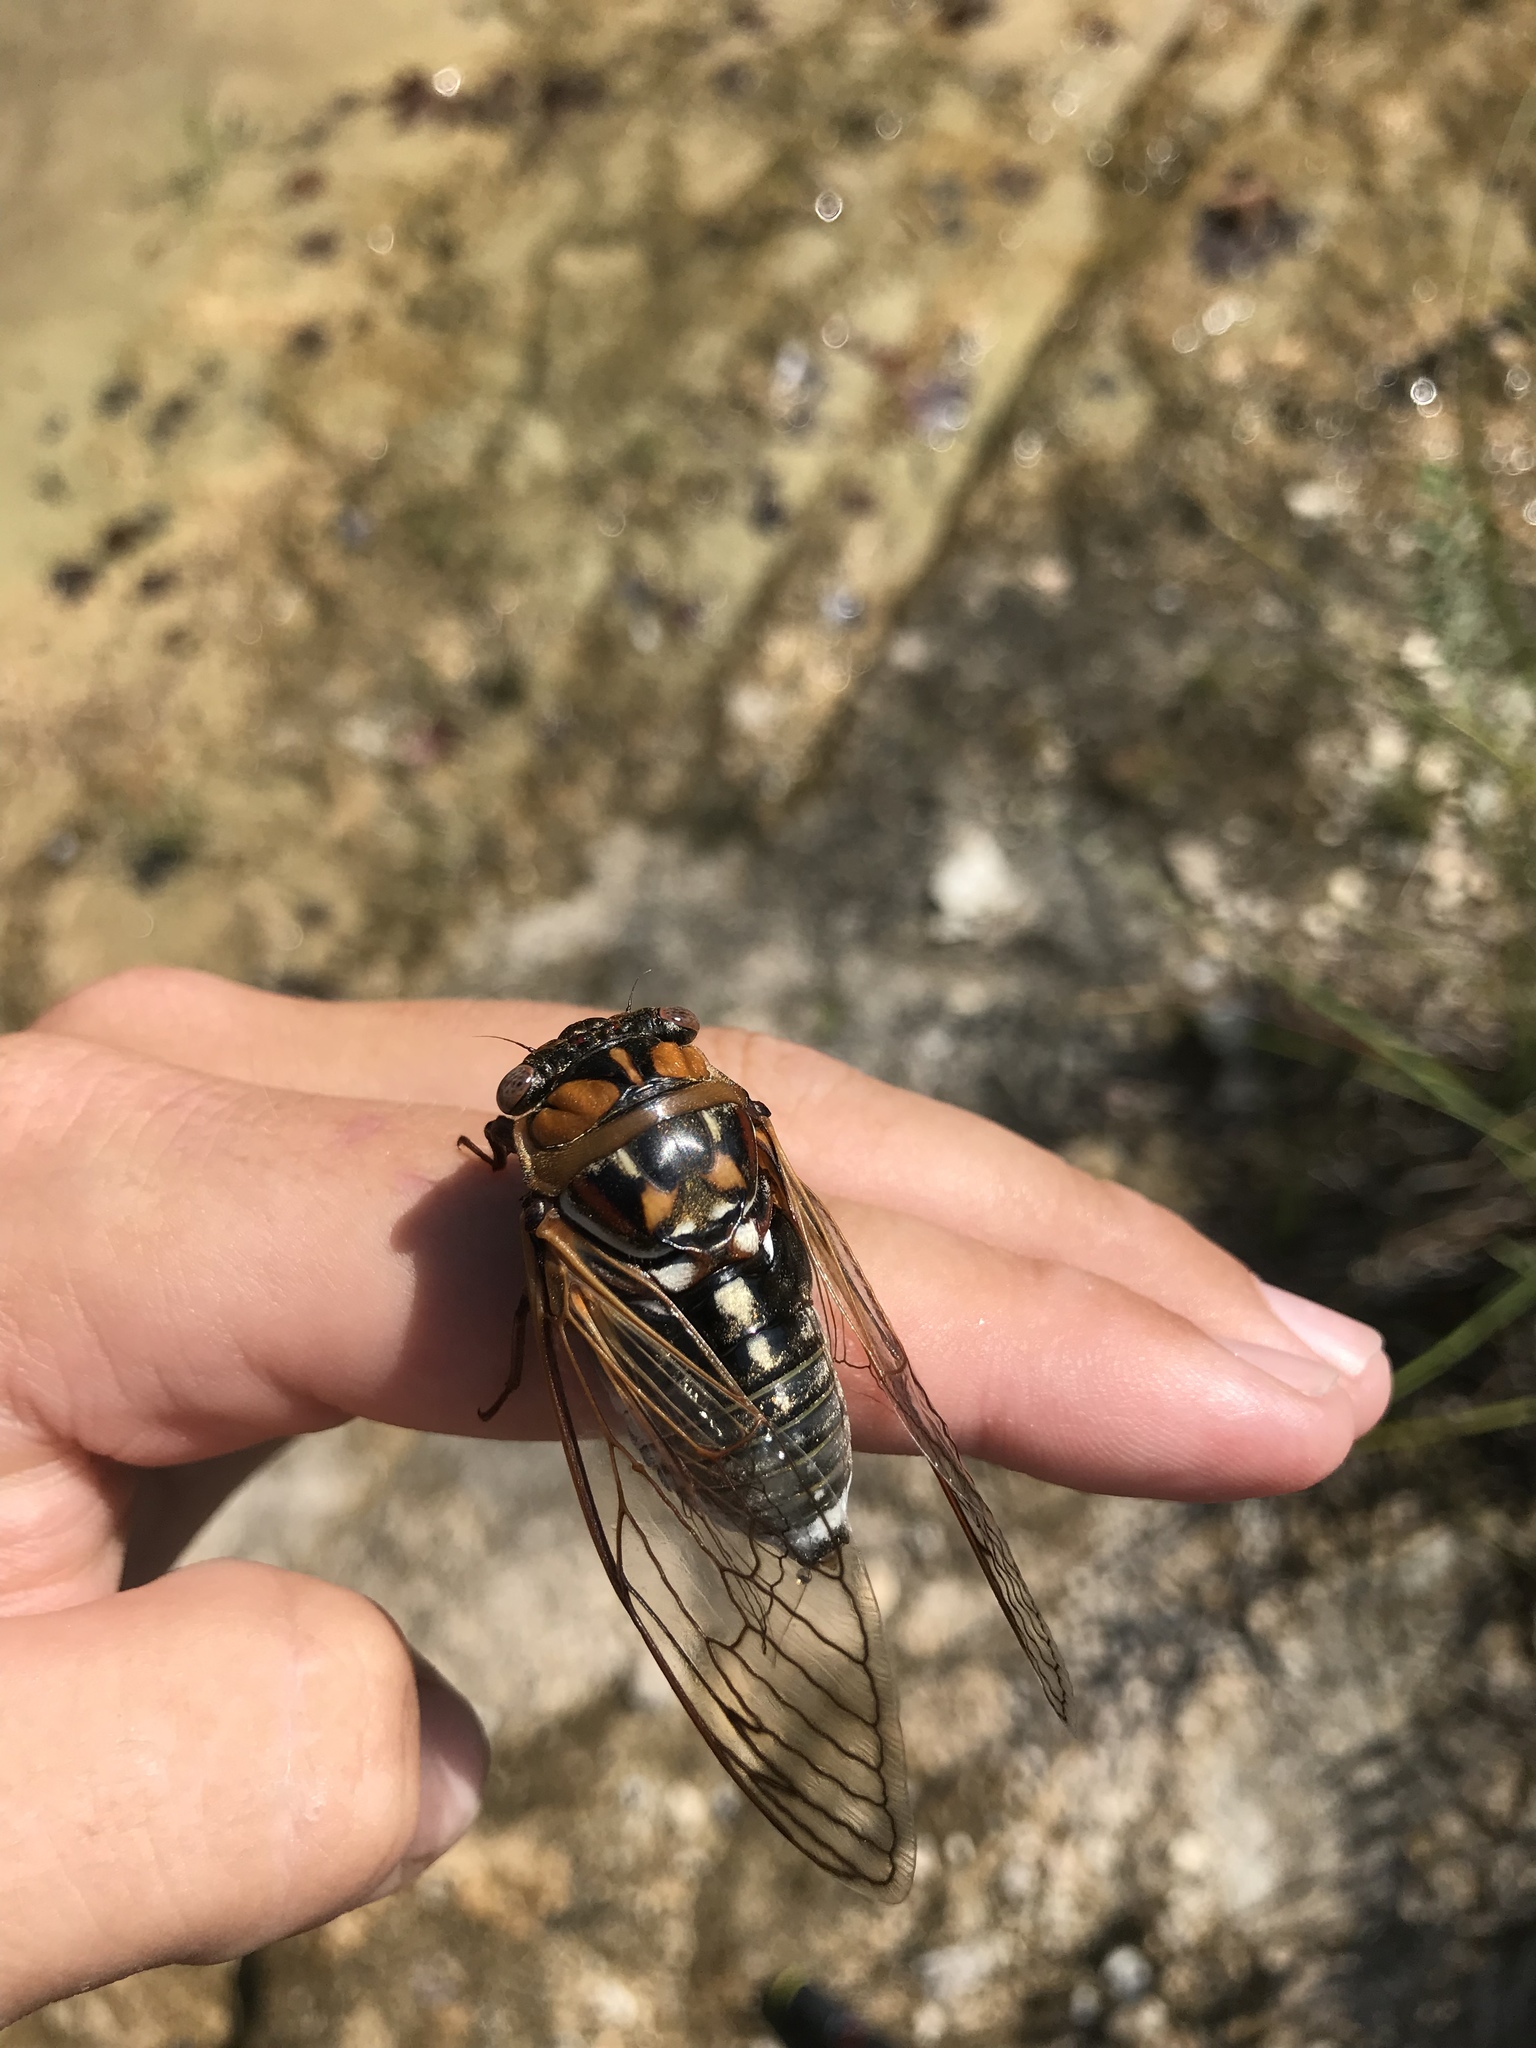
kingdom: Animalia
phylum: Arthropoda
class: Insecta
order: Hemiptera
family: Cicadidae
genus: Megatibicen
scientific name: Megatibicen dorsatus
